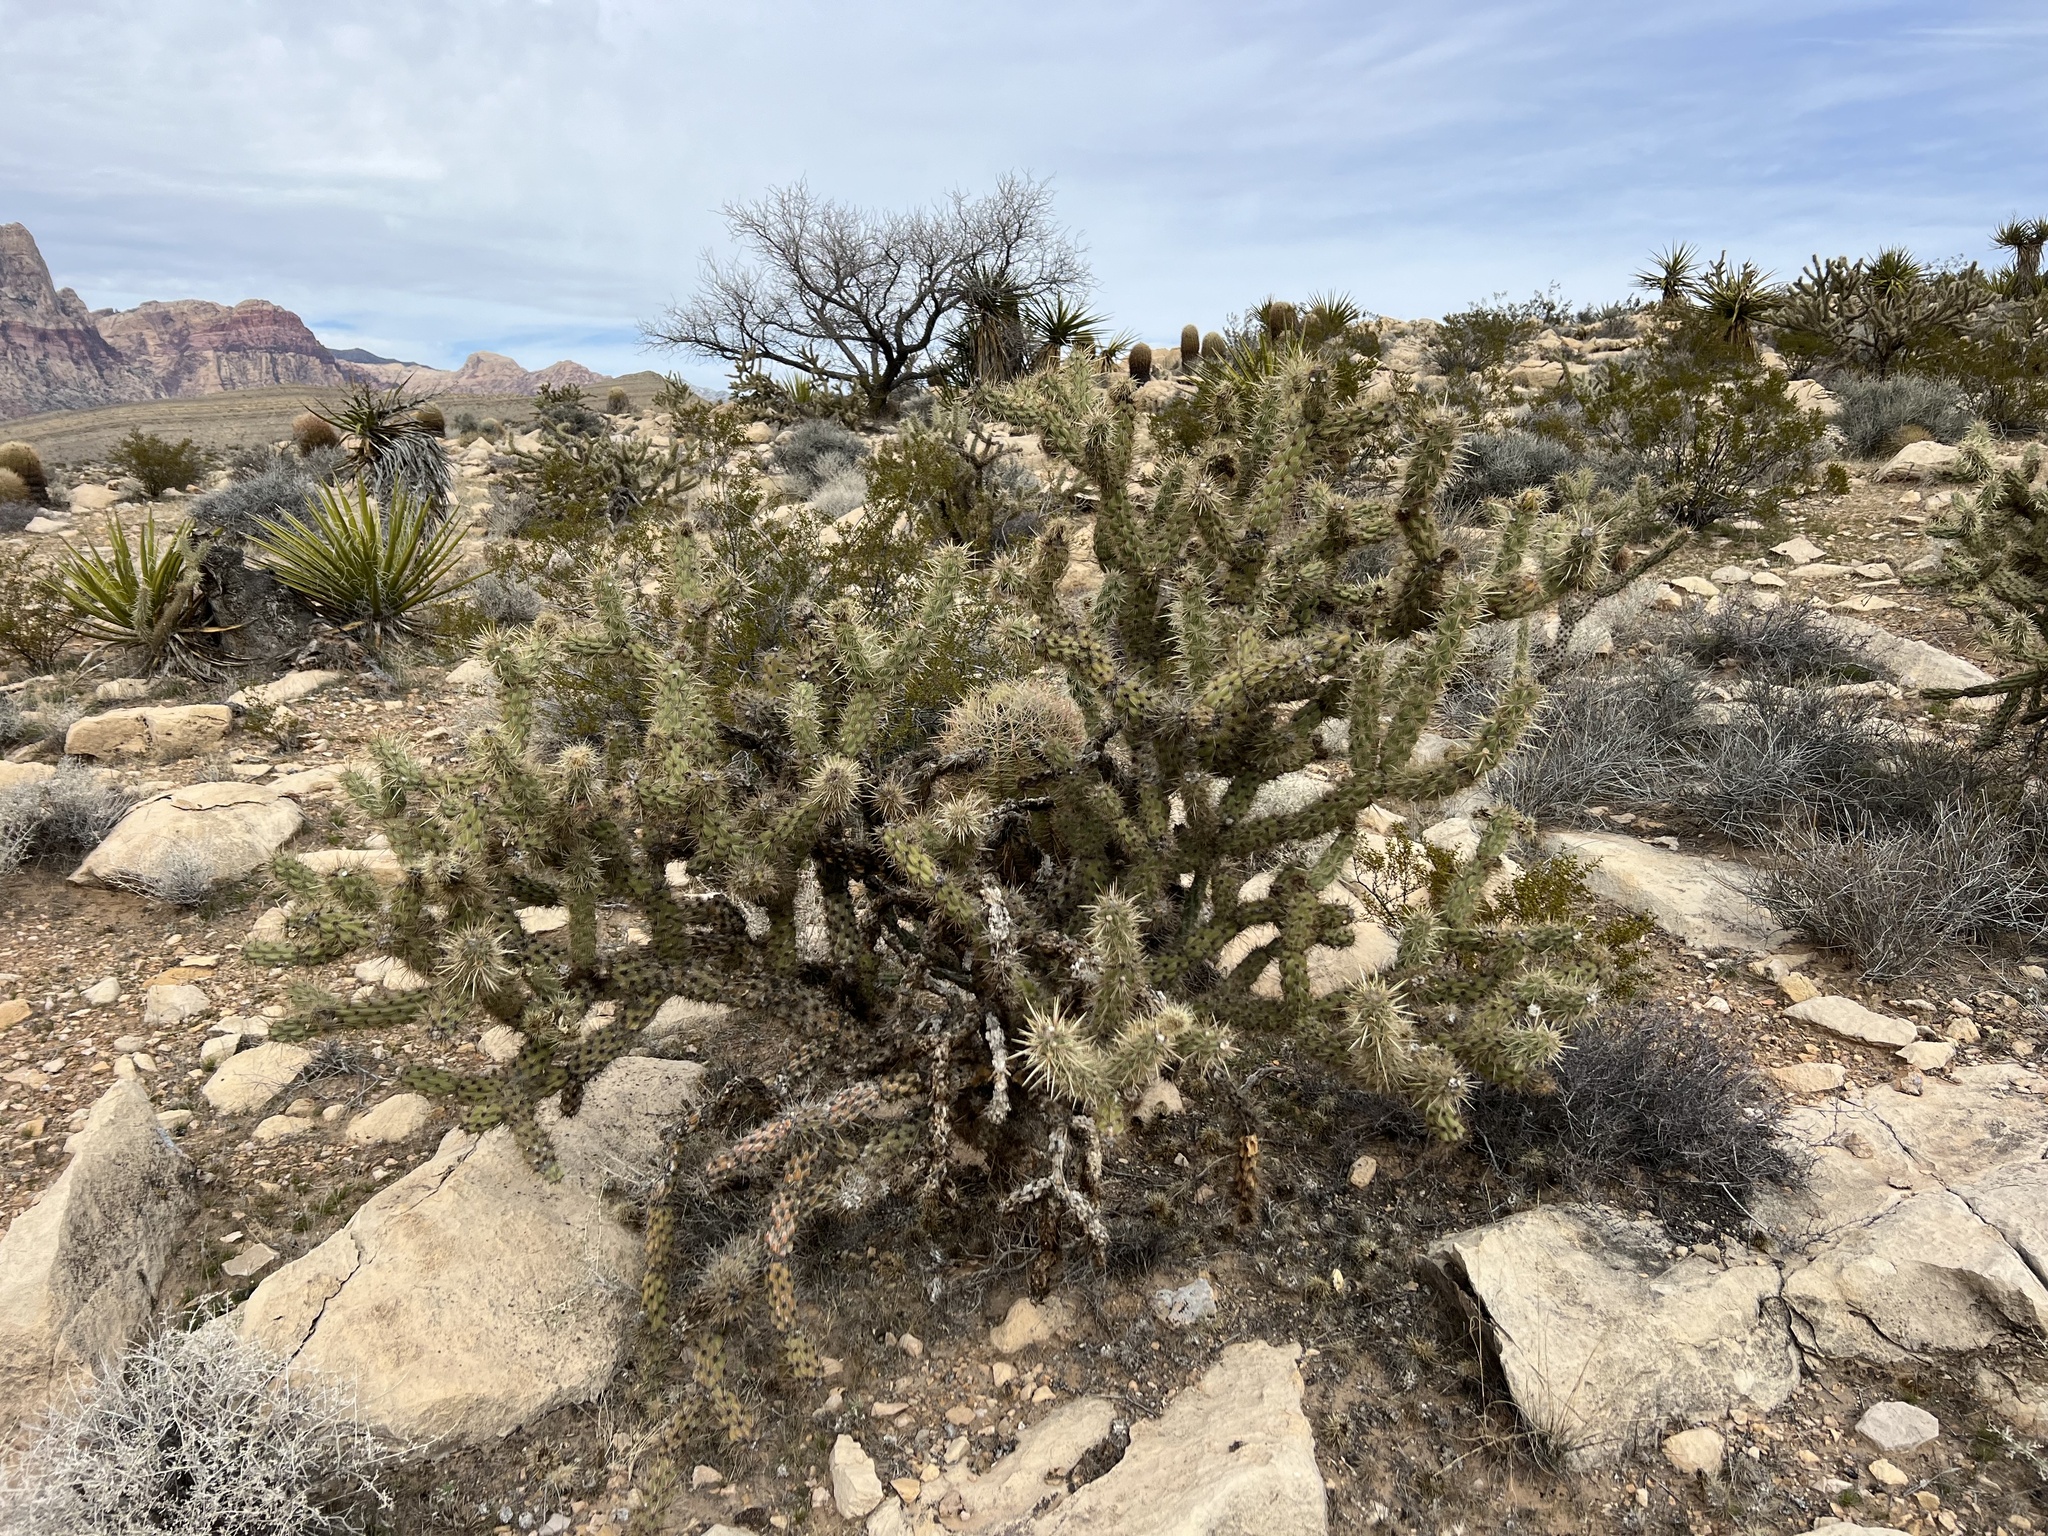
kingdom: Plantae
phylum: Tracheophyta
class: Magnoliopsida
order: Caryophyllales
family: Cactaceae
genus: Cylindropuntia
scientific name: Cylindropuntia acanthocarpa
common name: Buckhorn cholla
